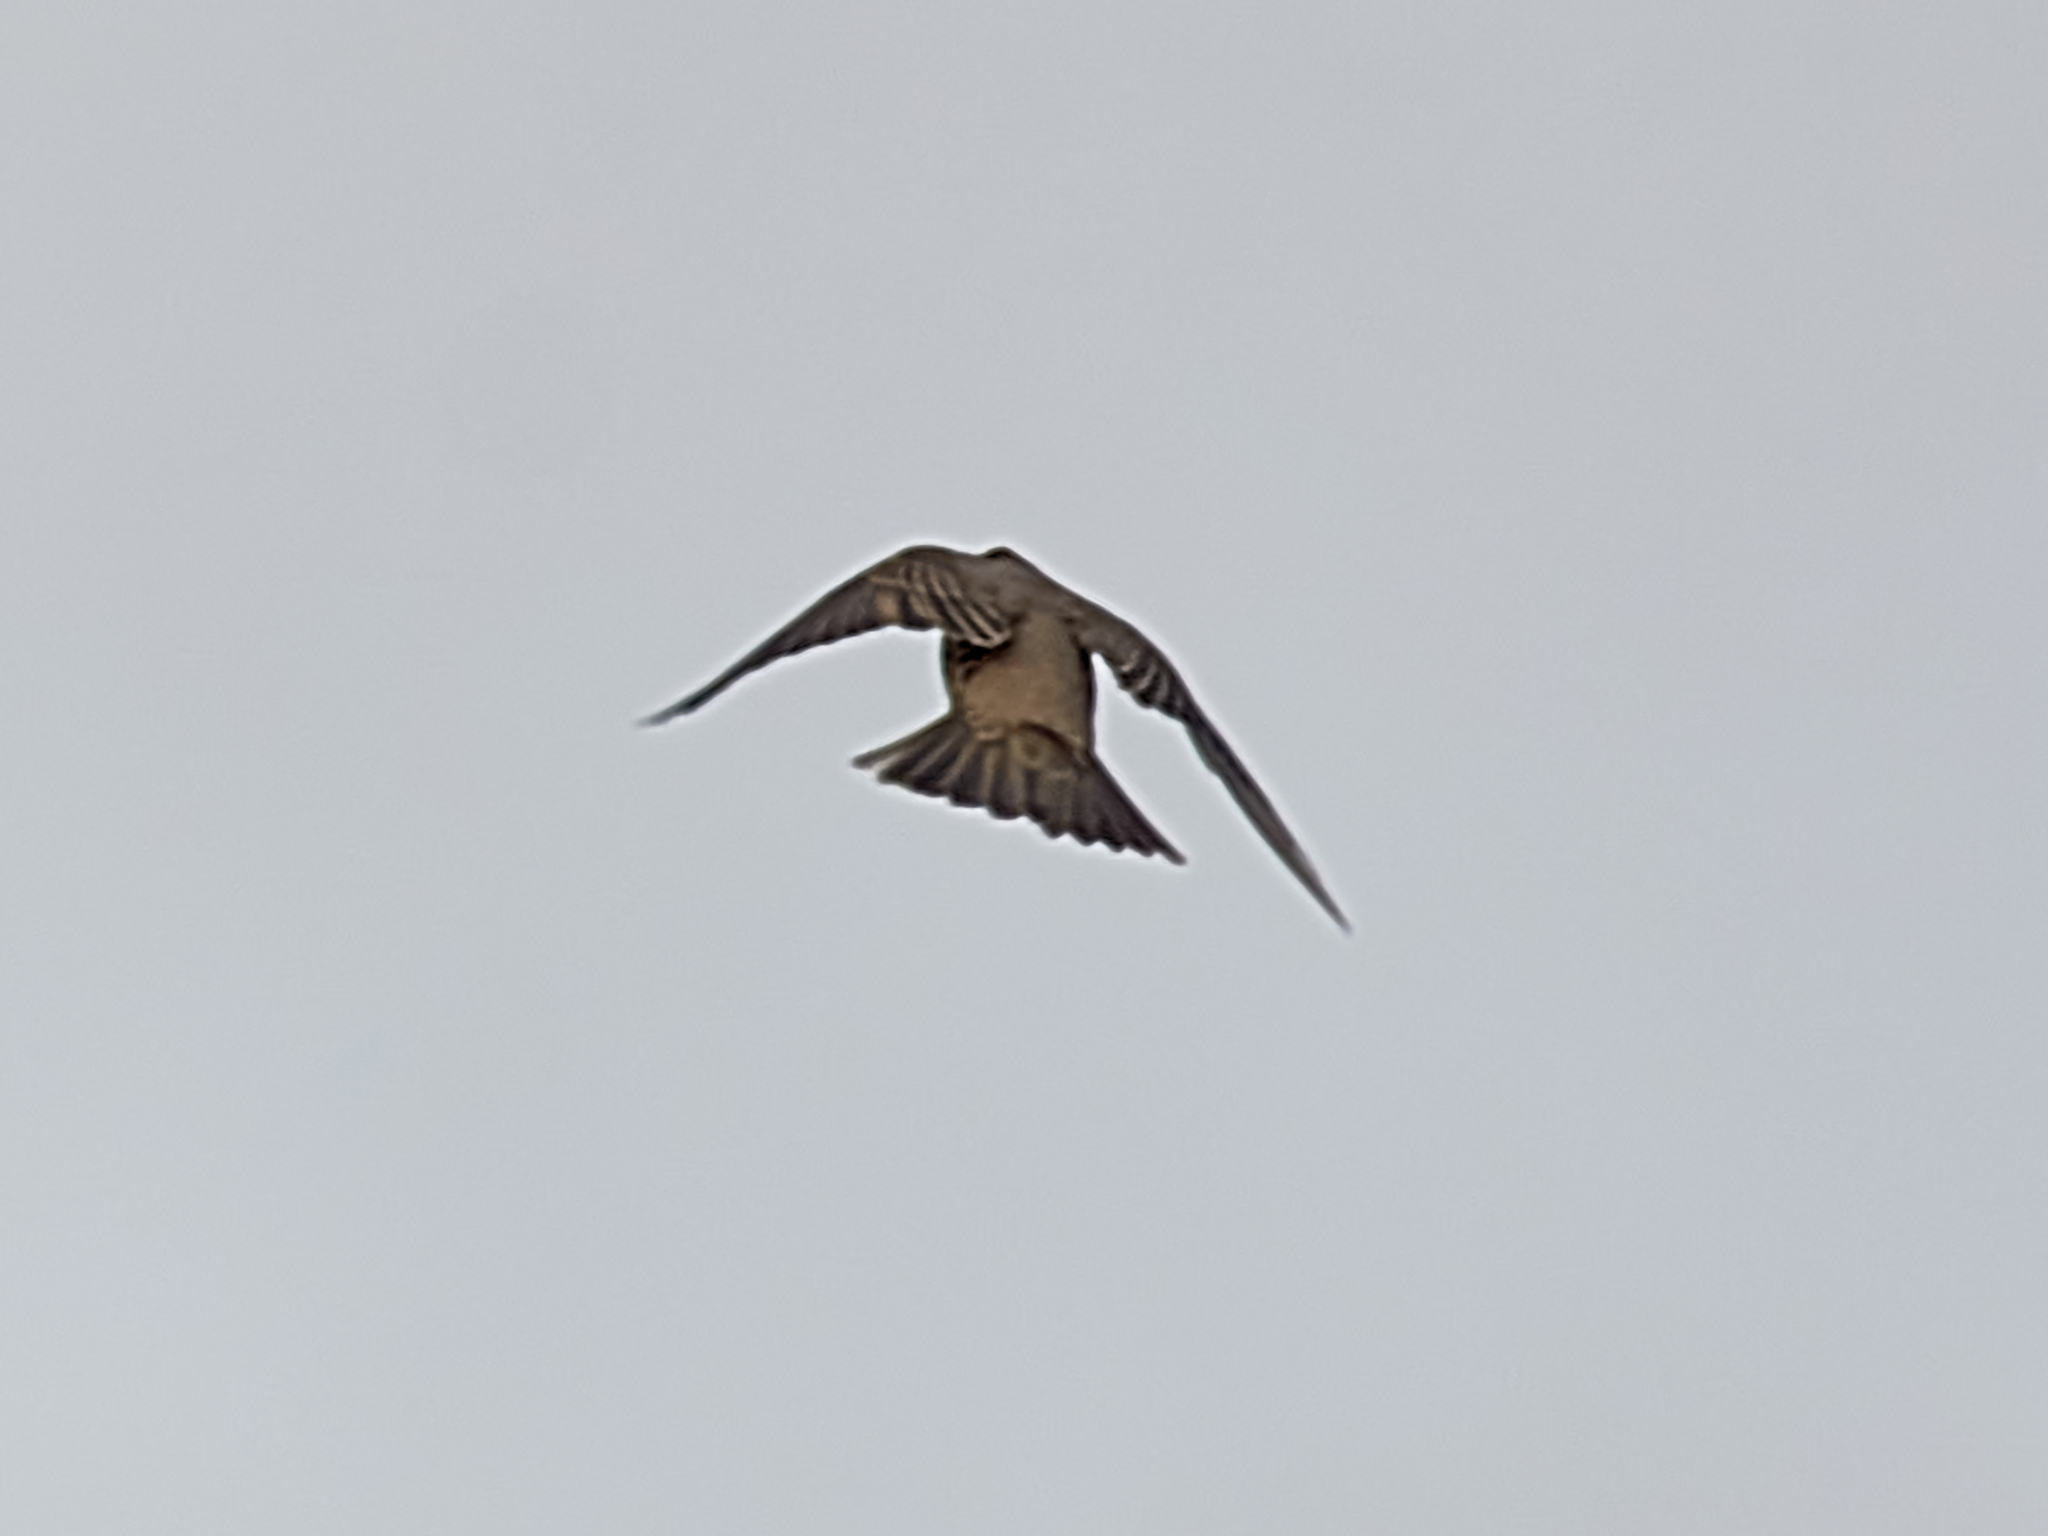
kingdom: Animalia
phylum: Chordata
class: Aves
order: Passeriformes
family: Turdidae
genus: Turdus
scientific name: Turdus viscivorus
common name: Mistle thrush
